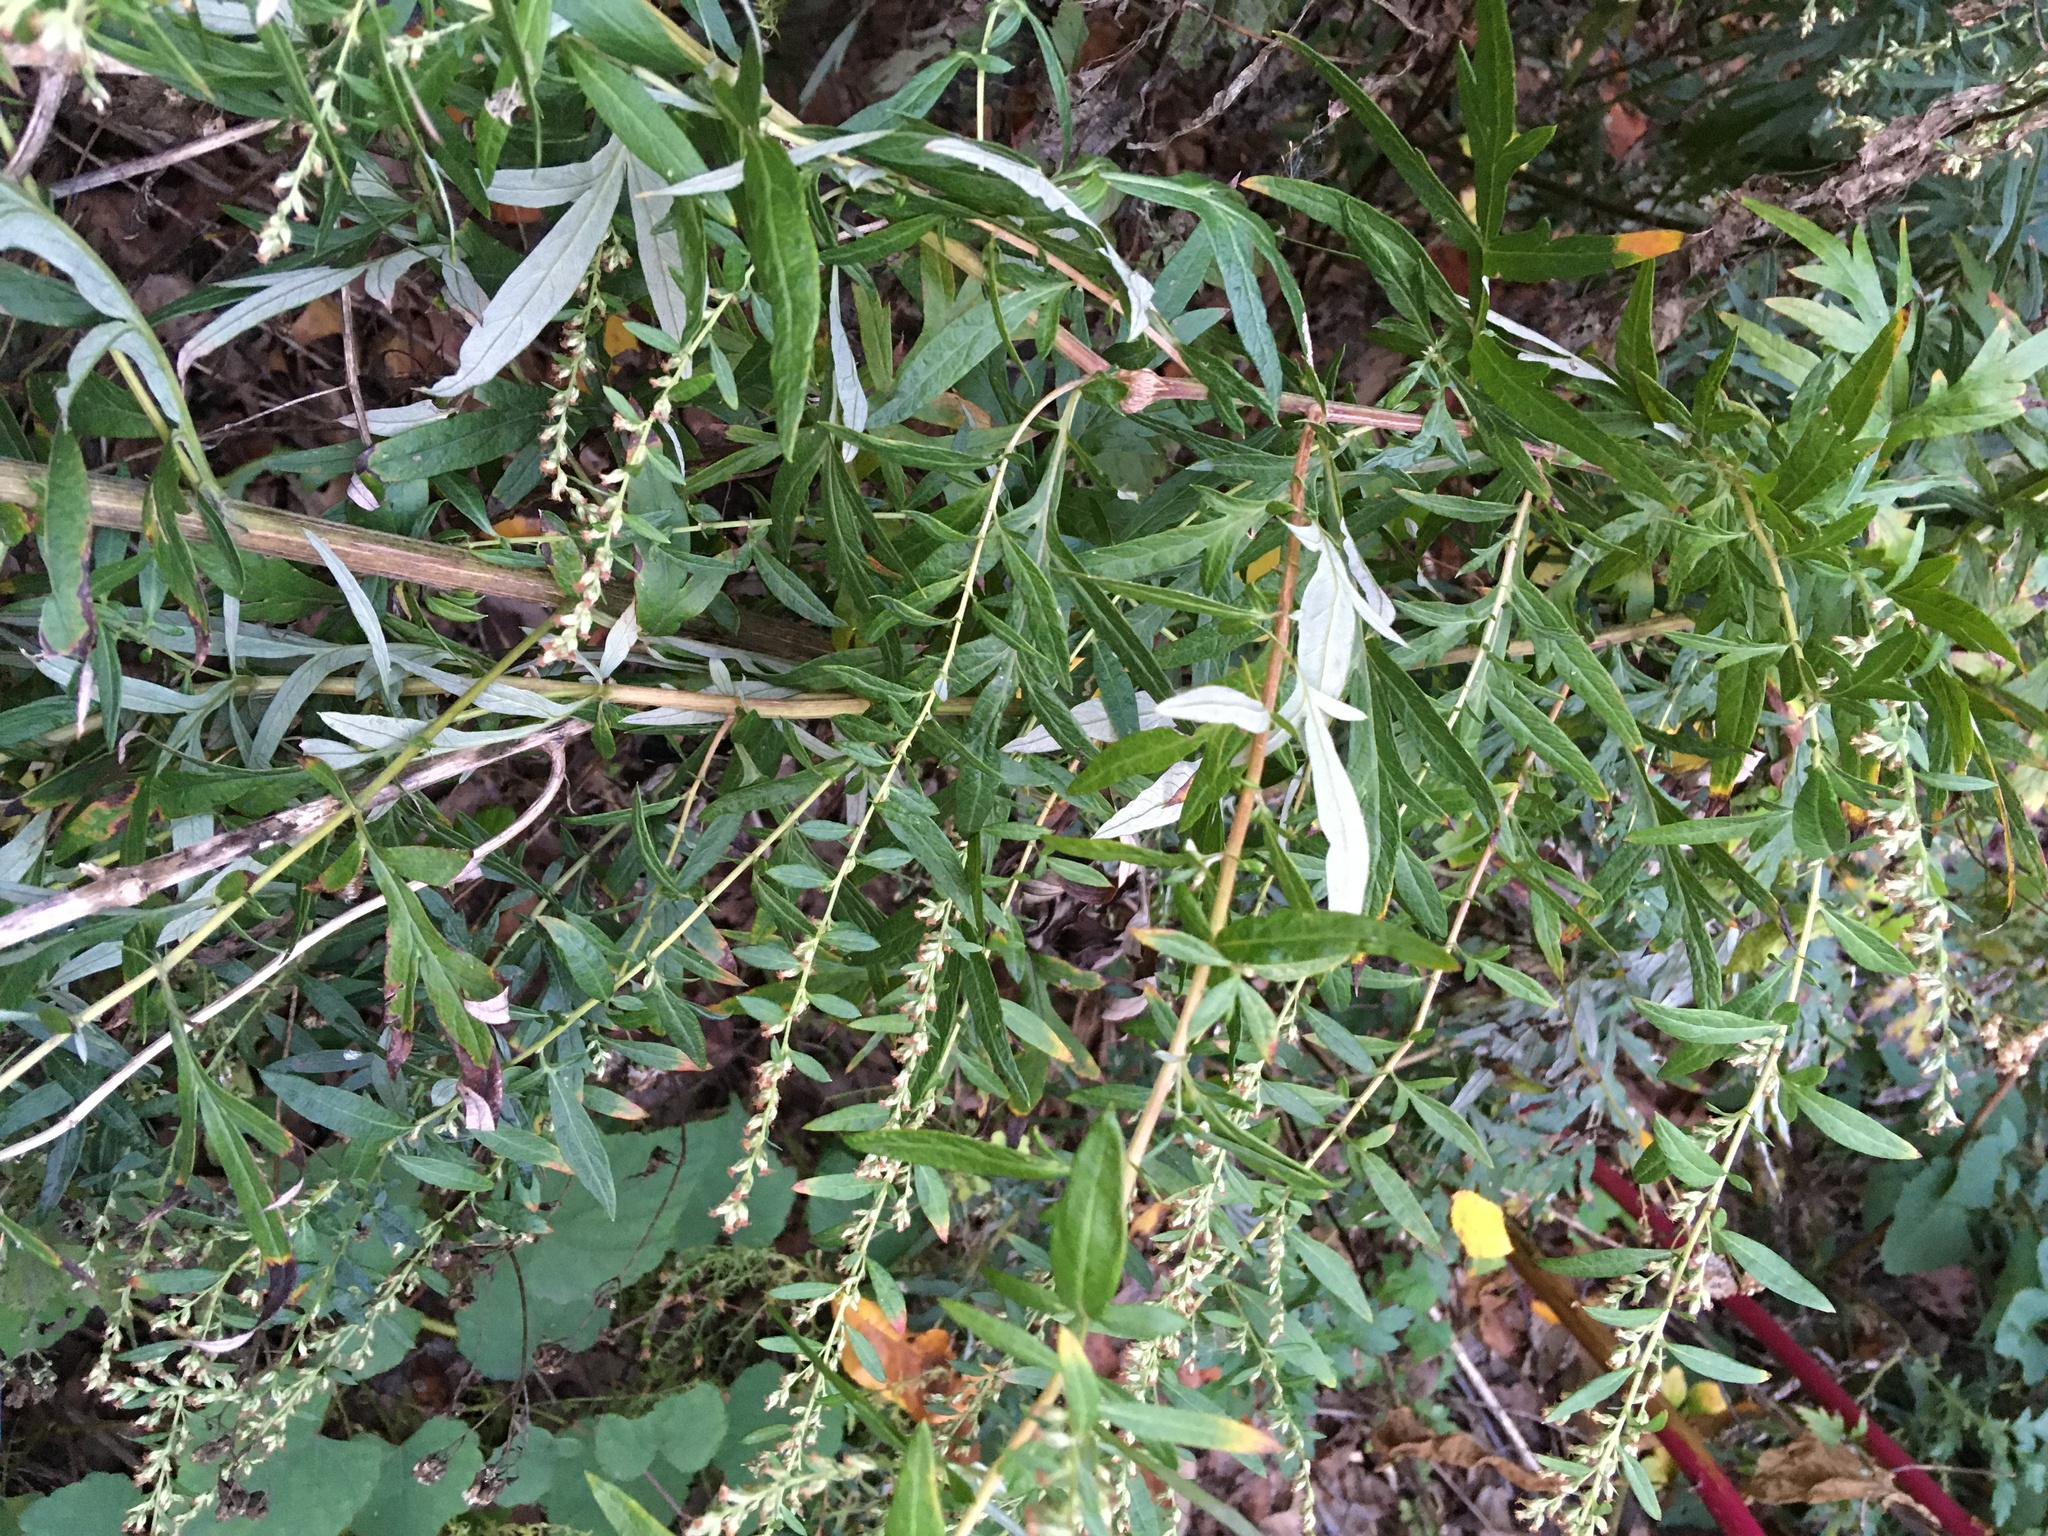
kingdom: Plantae
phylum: Tracheophyta
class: Magnoliopsida
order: Asterales
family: Asteraceae
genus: Artemisia
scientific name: Artemisia vulgaris
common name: Mugwort
